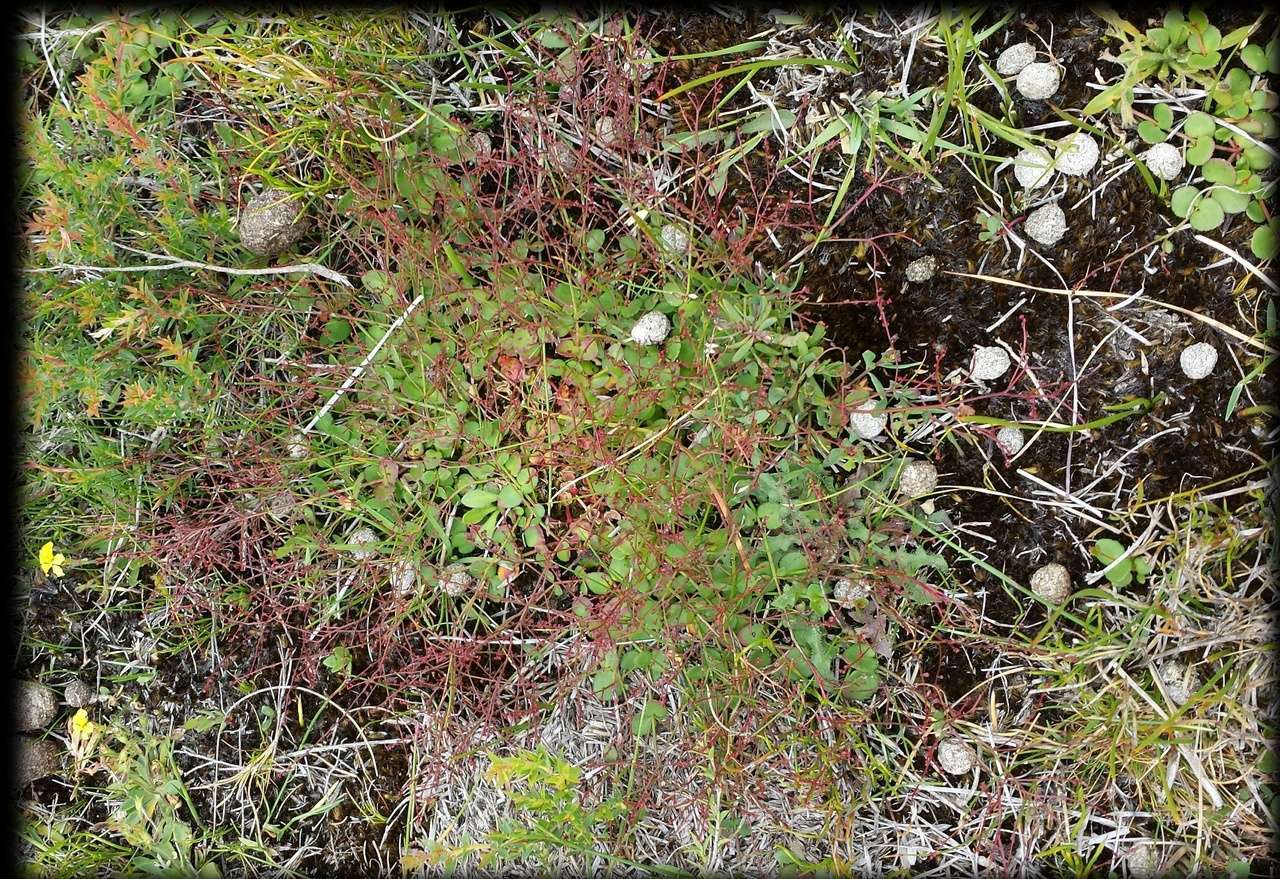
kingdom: Plantae
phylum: Tracheophyta
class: Magnoliopsida
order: Saxifragales
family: Haloragaceae
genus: Gonocarpus
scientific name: Gonocarpus micranthus
